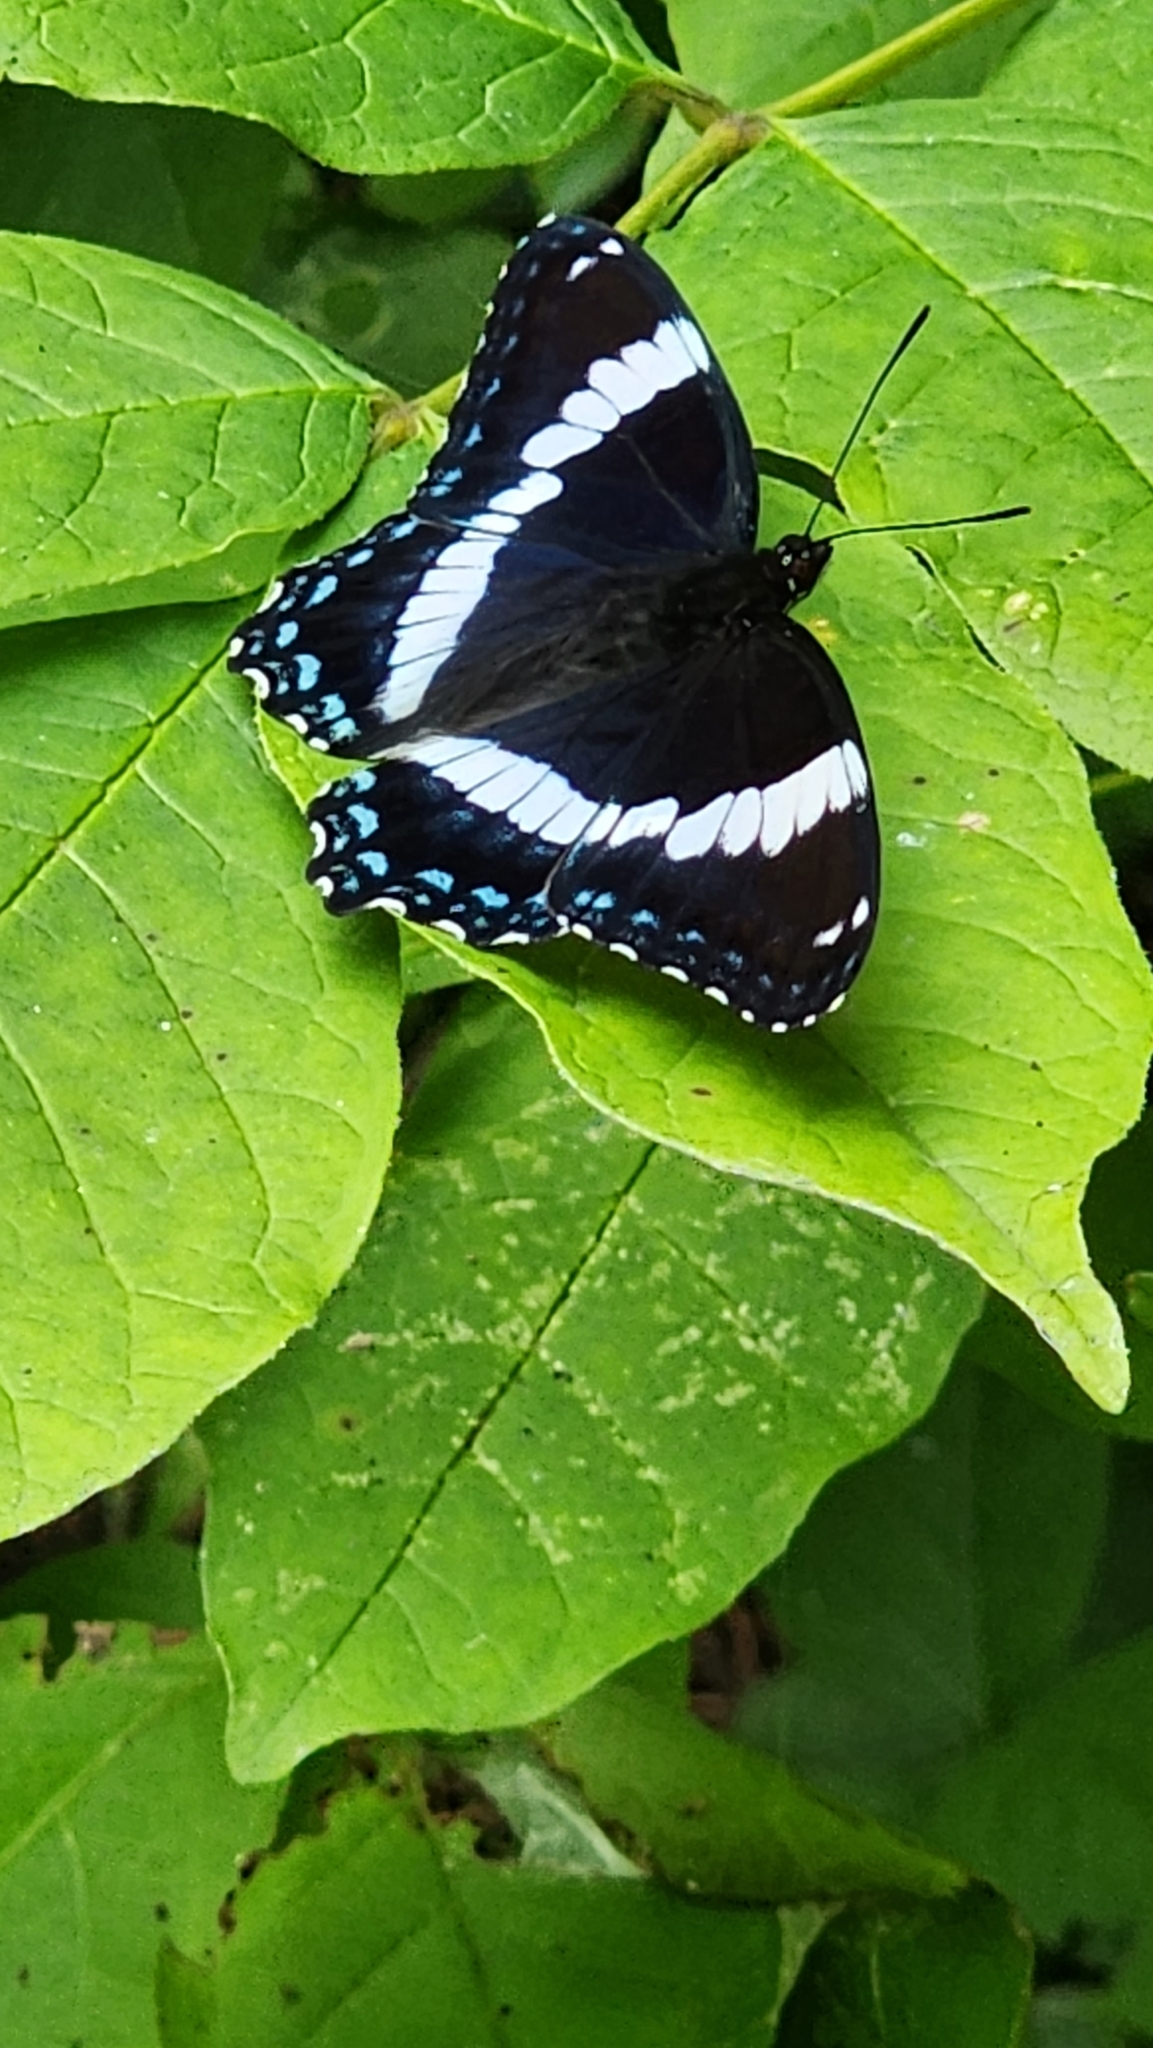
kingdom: Animalia
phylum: Arthropoda
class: Insecta
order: Lepidoptera
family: Nymphalidae
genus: Limenitis
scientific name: Limenitis arthemis
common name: Red-spotted admiral
